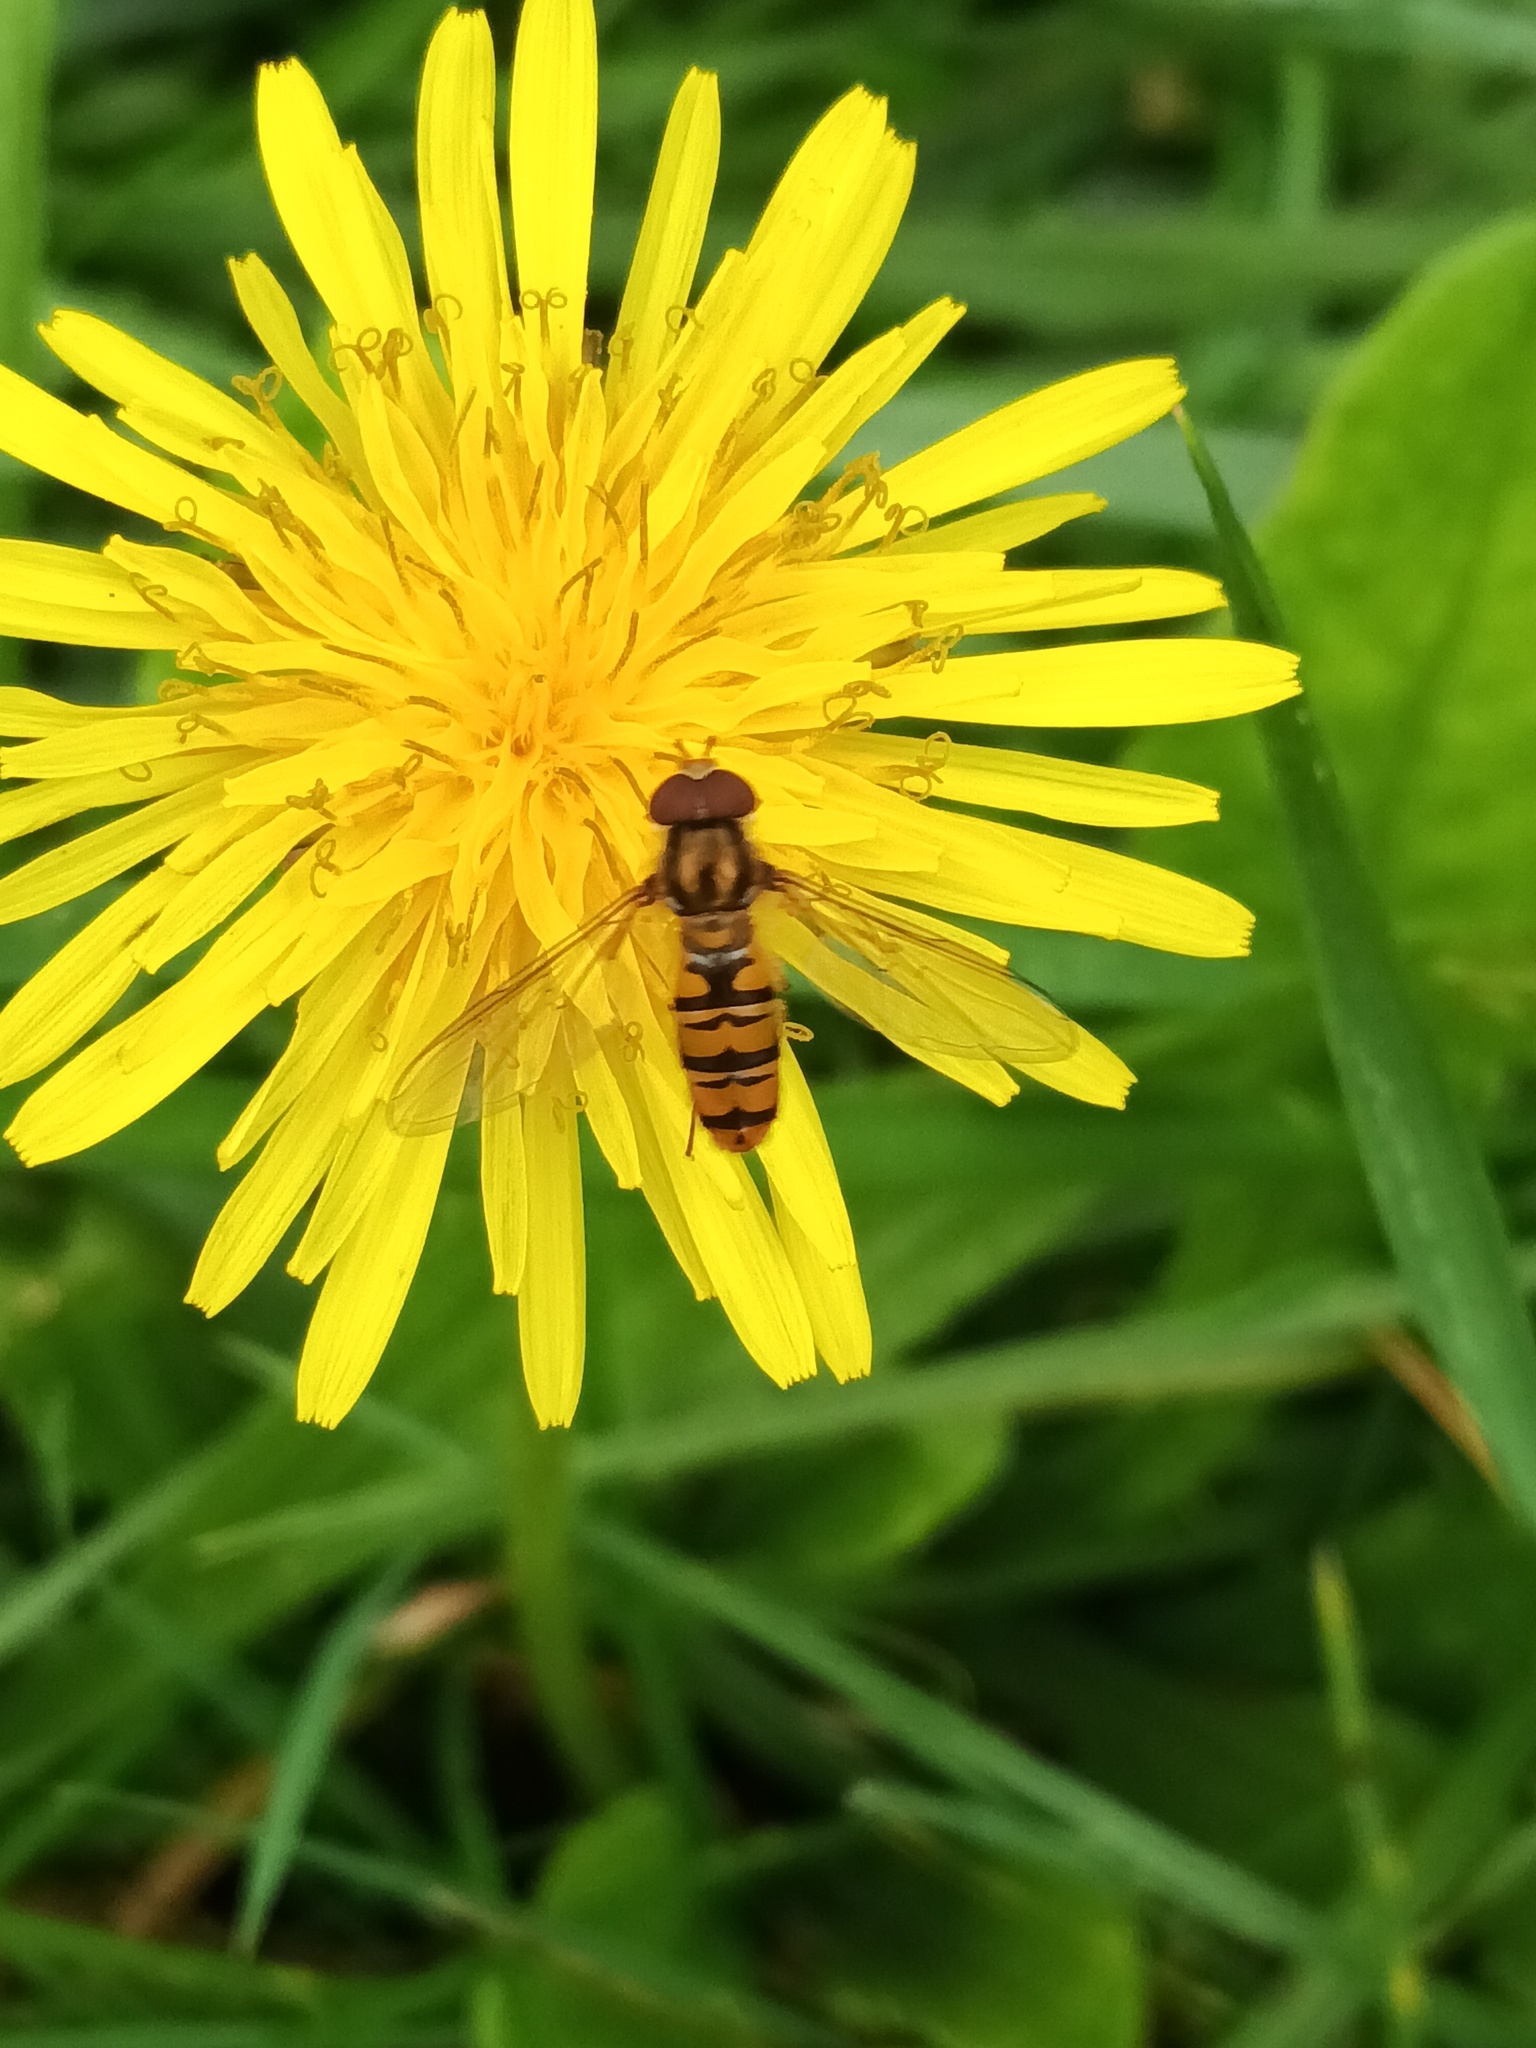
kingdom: Animalia
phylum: Arthropoda
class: Insecta
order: Diptera
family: Syrphidae
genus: Episyrphus
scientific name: Episyrphus balteatus
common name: Marmalade hoverfly
